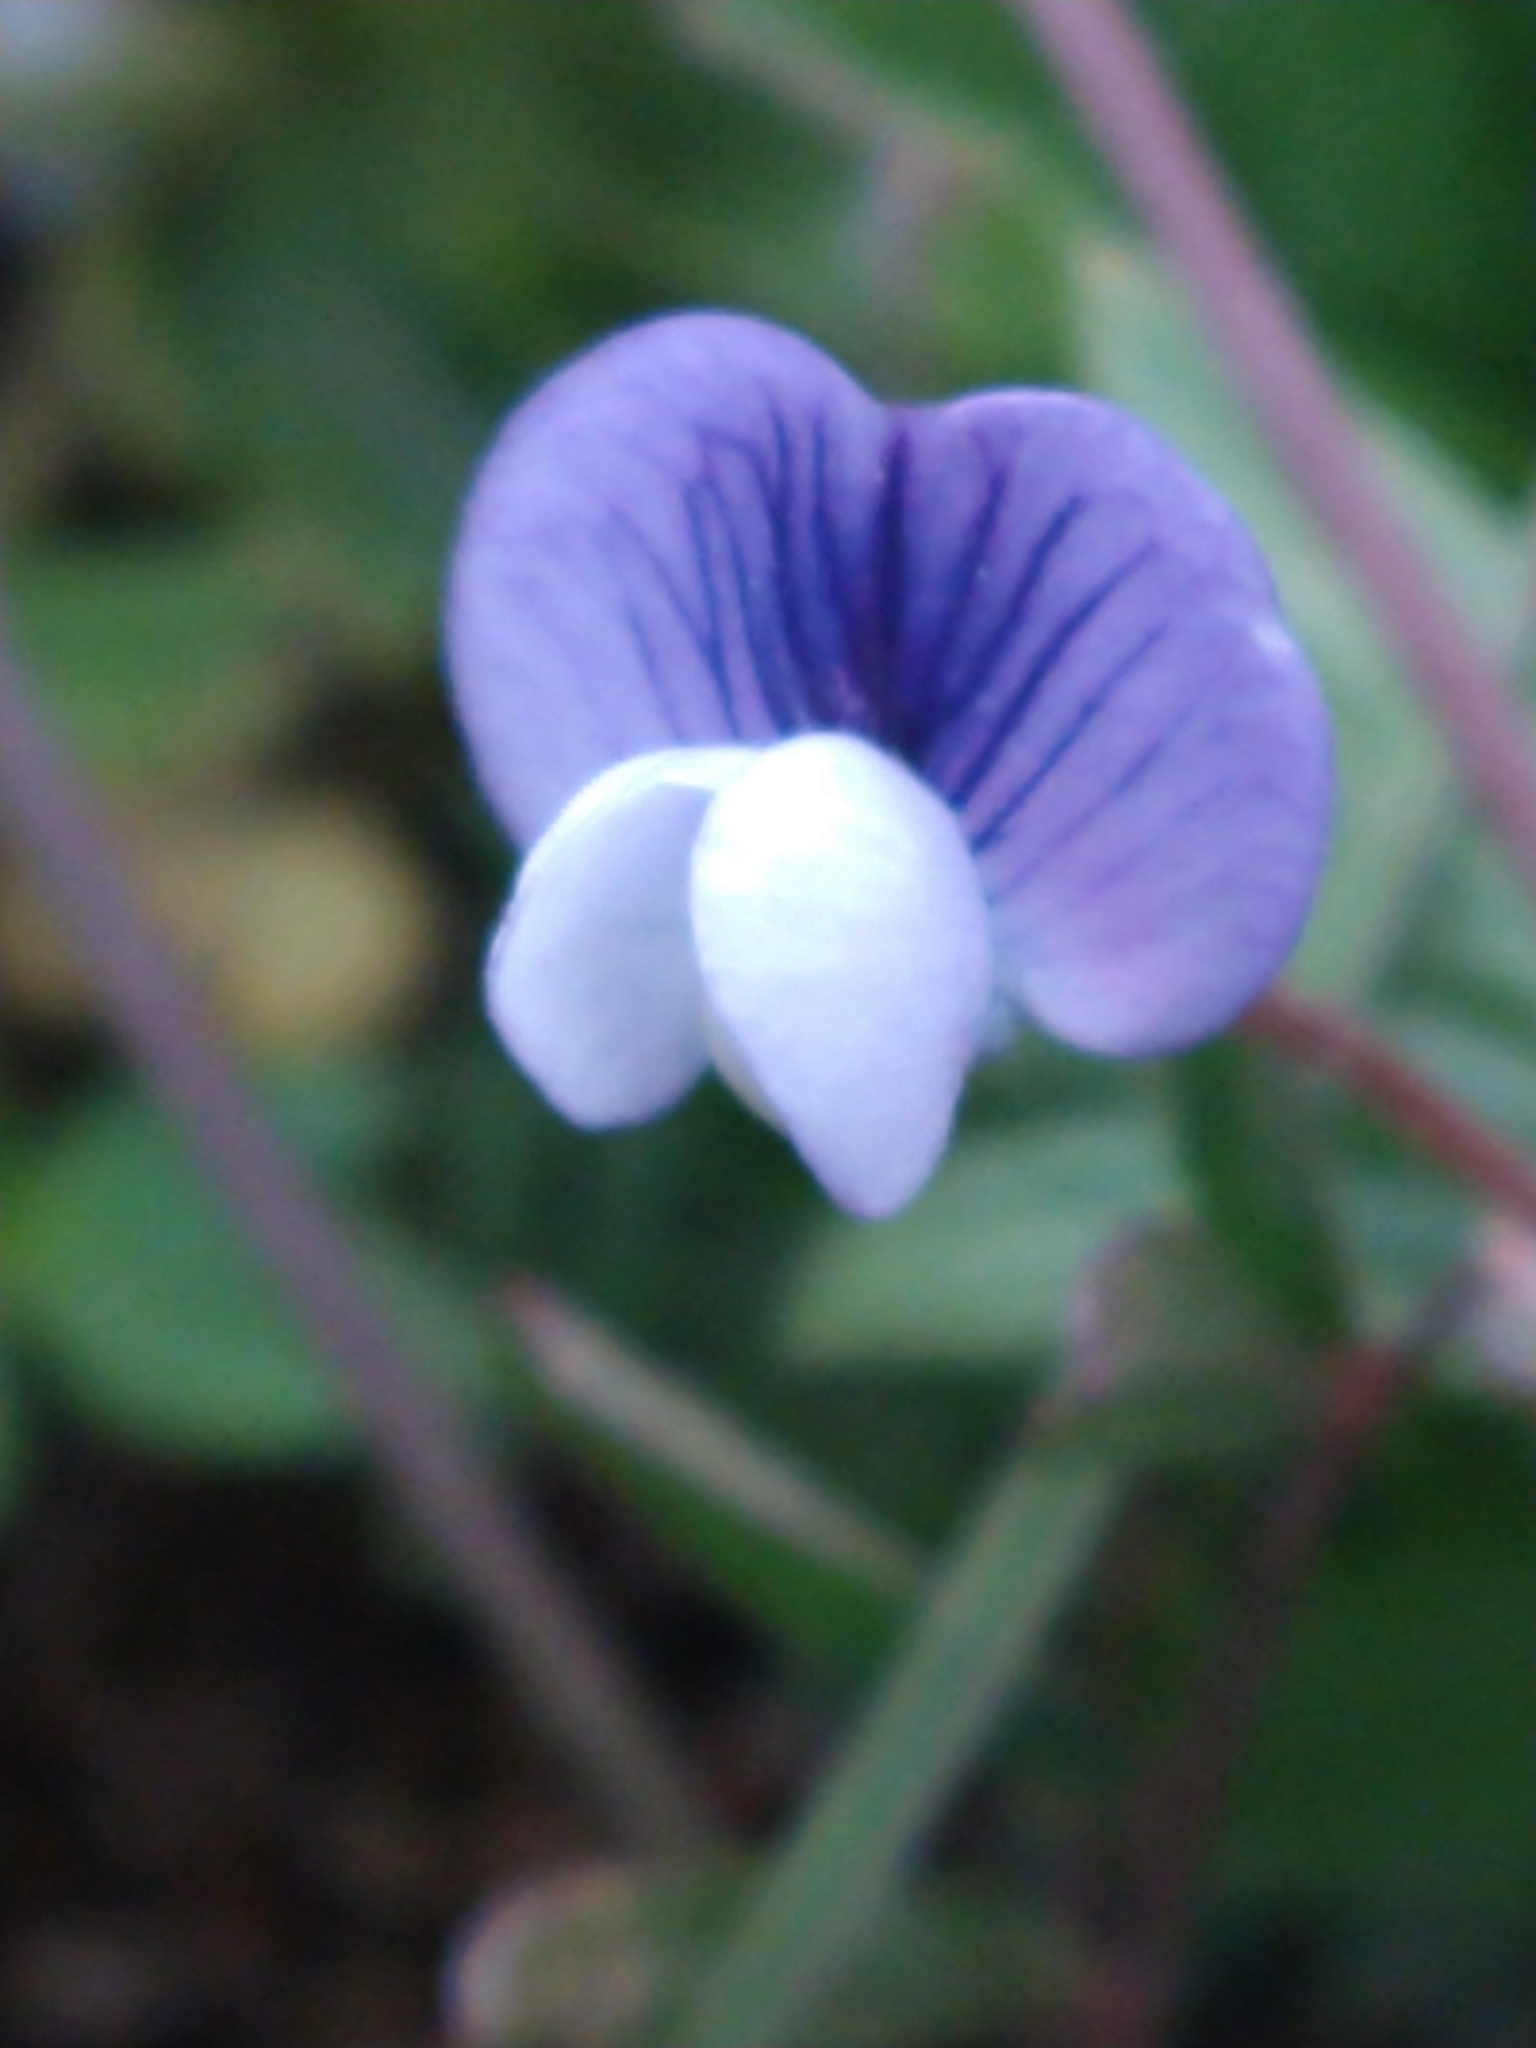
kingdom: Plantae
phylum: Tracheophyta
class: Magnoliopsida
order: Fabales
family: Fabaceae
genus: Vicia
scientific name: Vicia magellanica
